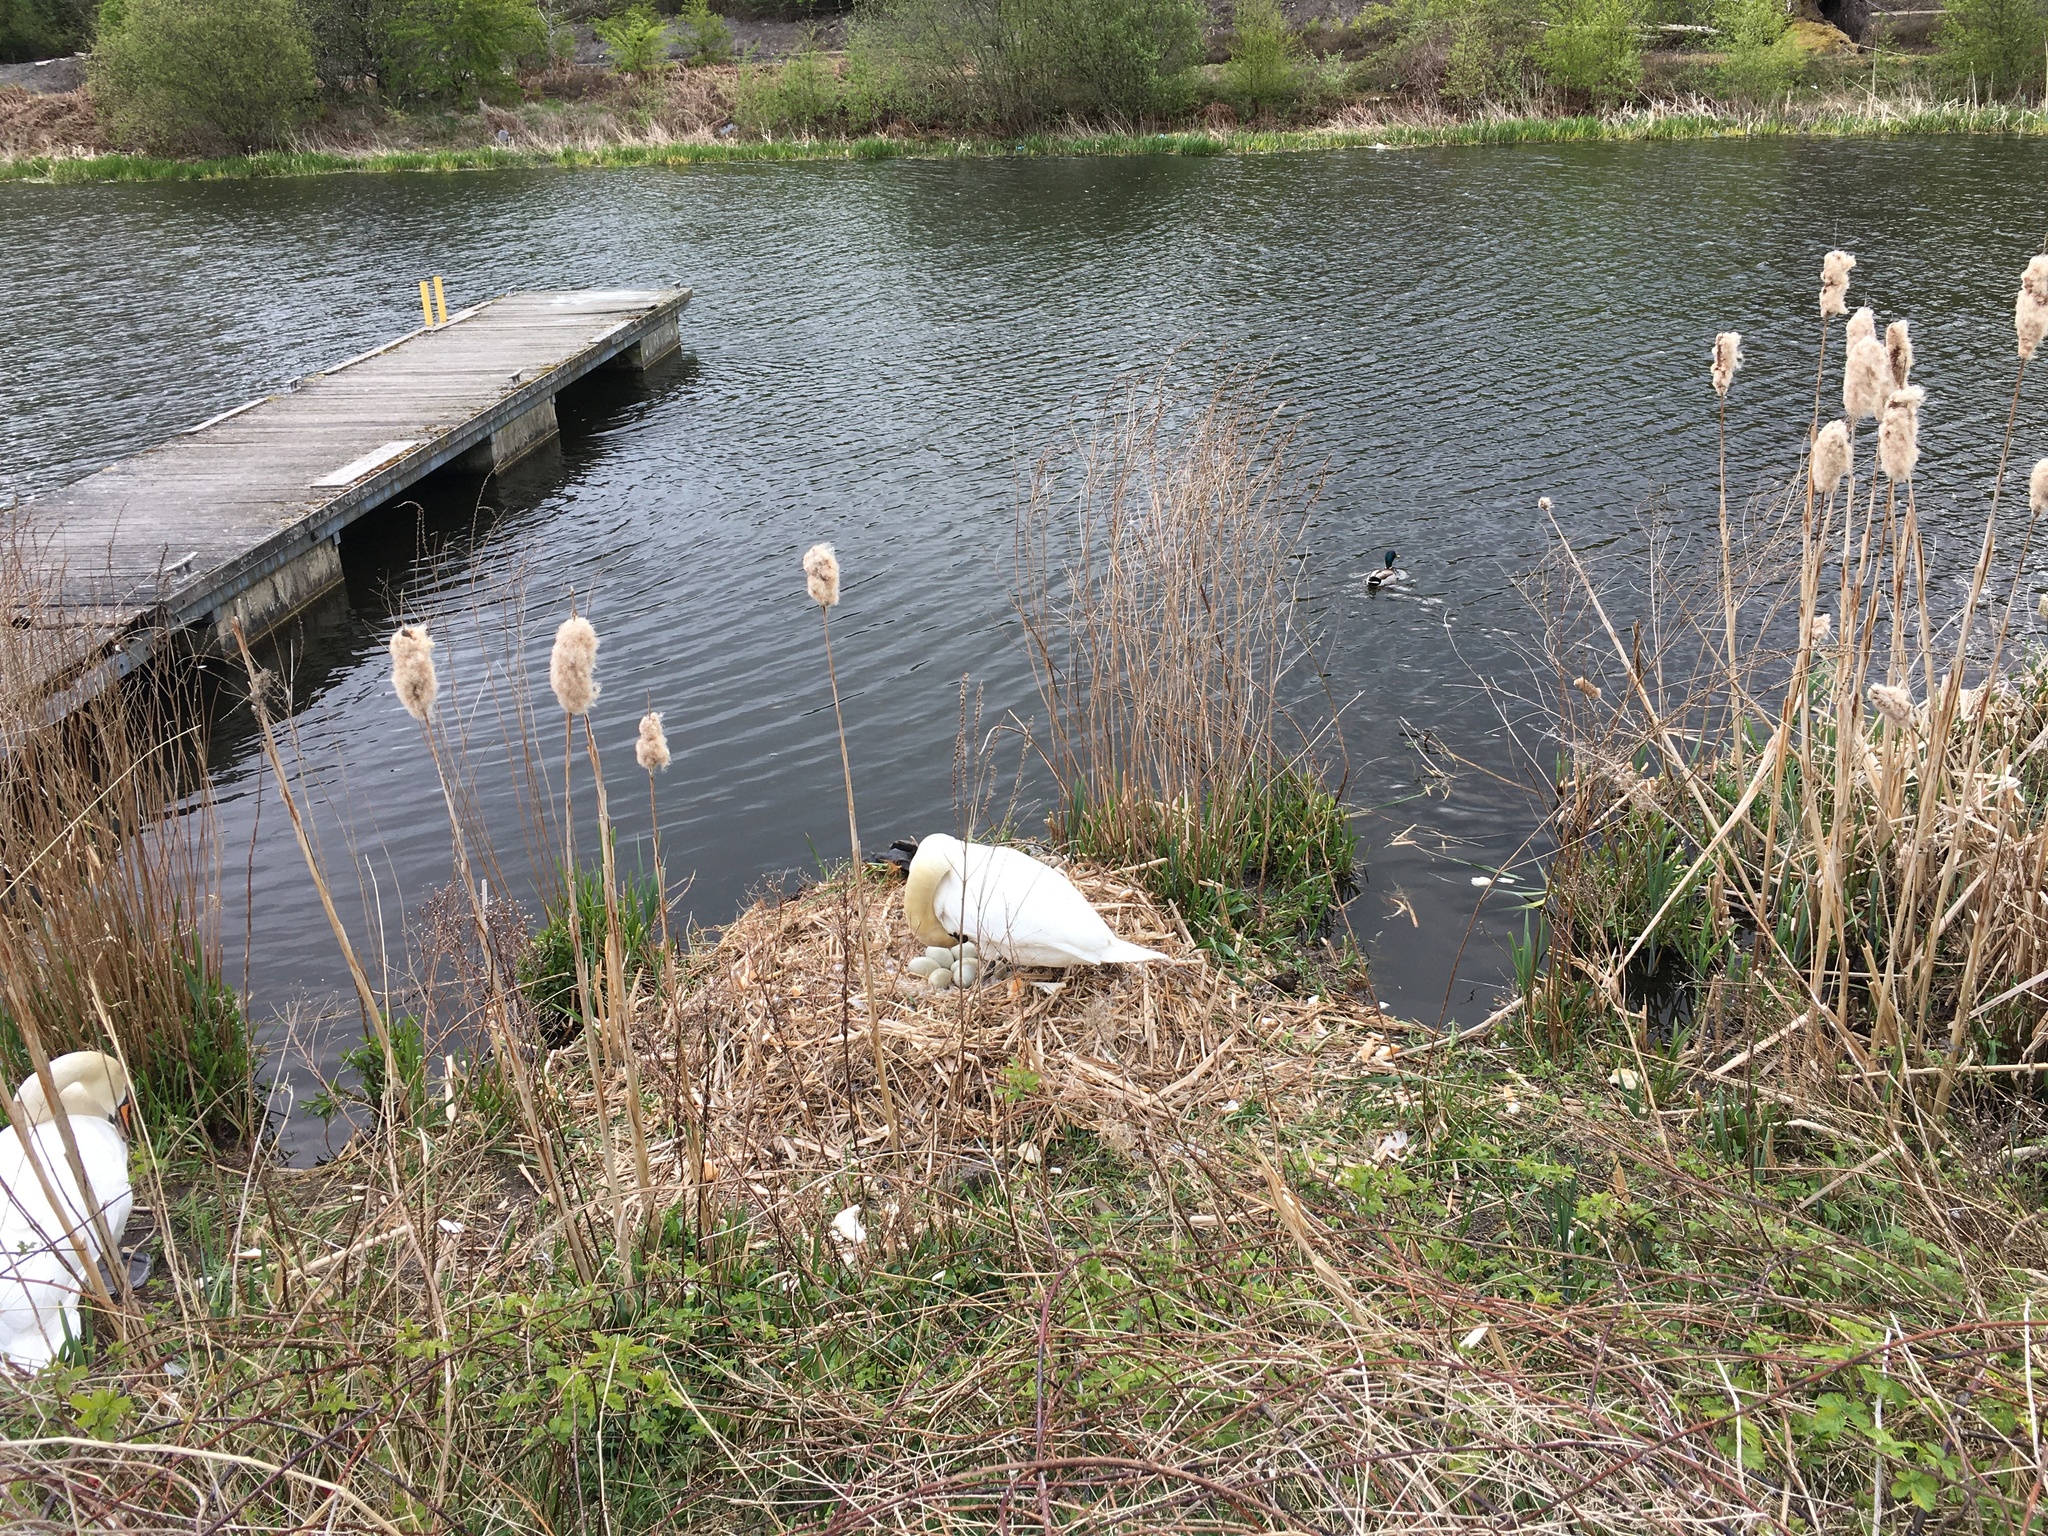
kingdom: Animalia
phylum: Chordata
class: Aves
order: Anseriformes
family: Anatidae
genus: Cygnus
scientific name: Cygnus olor
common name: Mute swan
